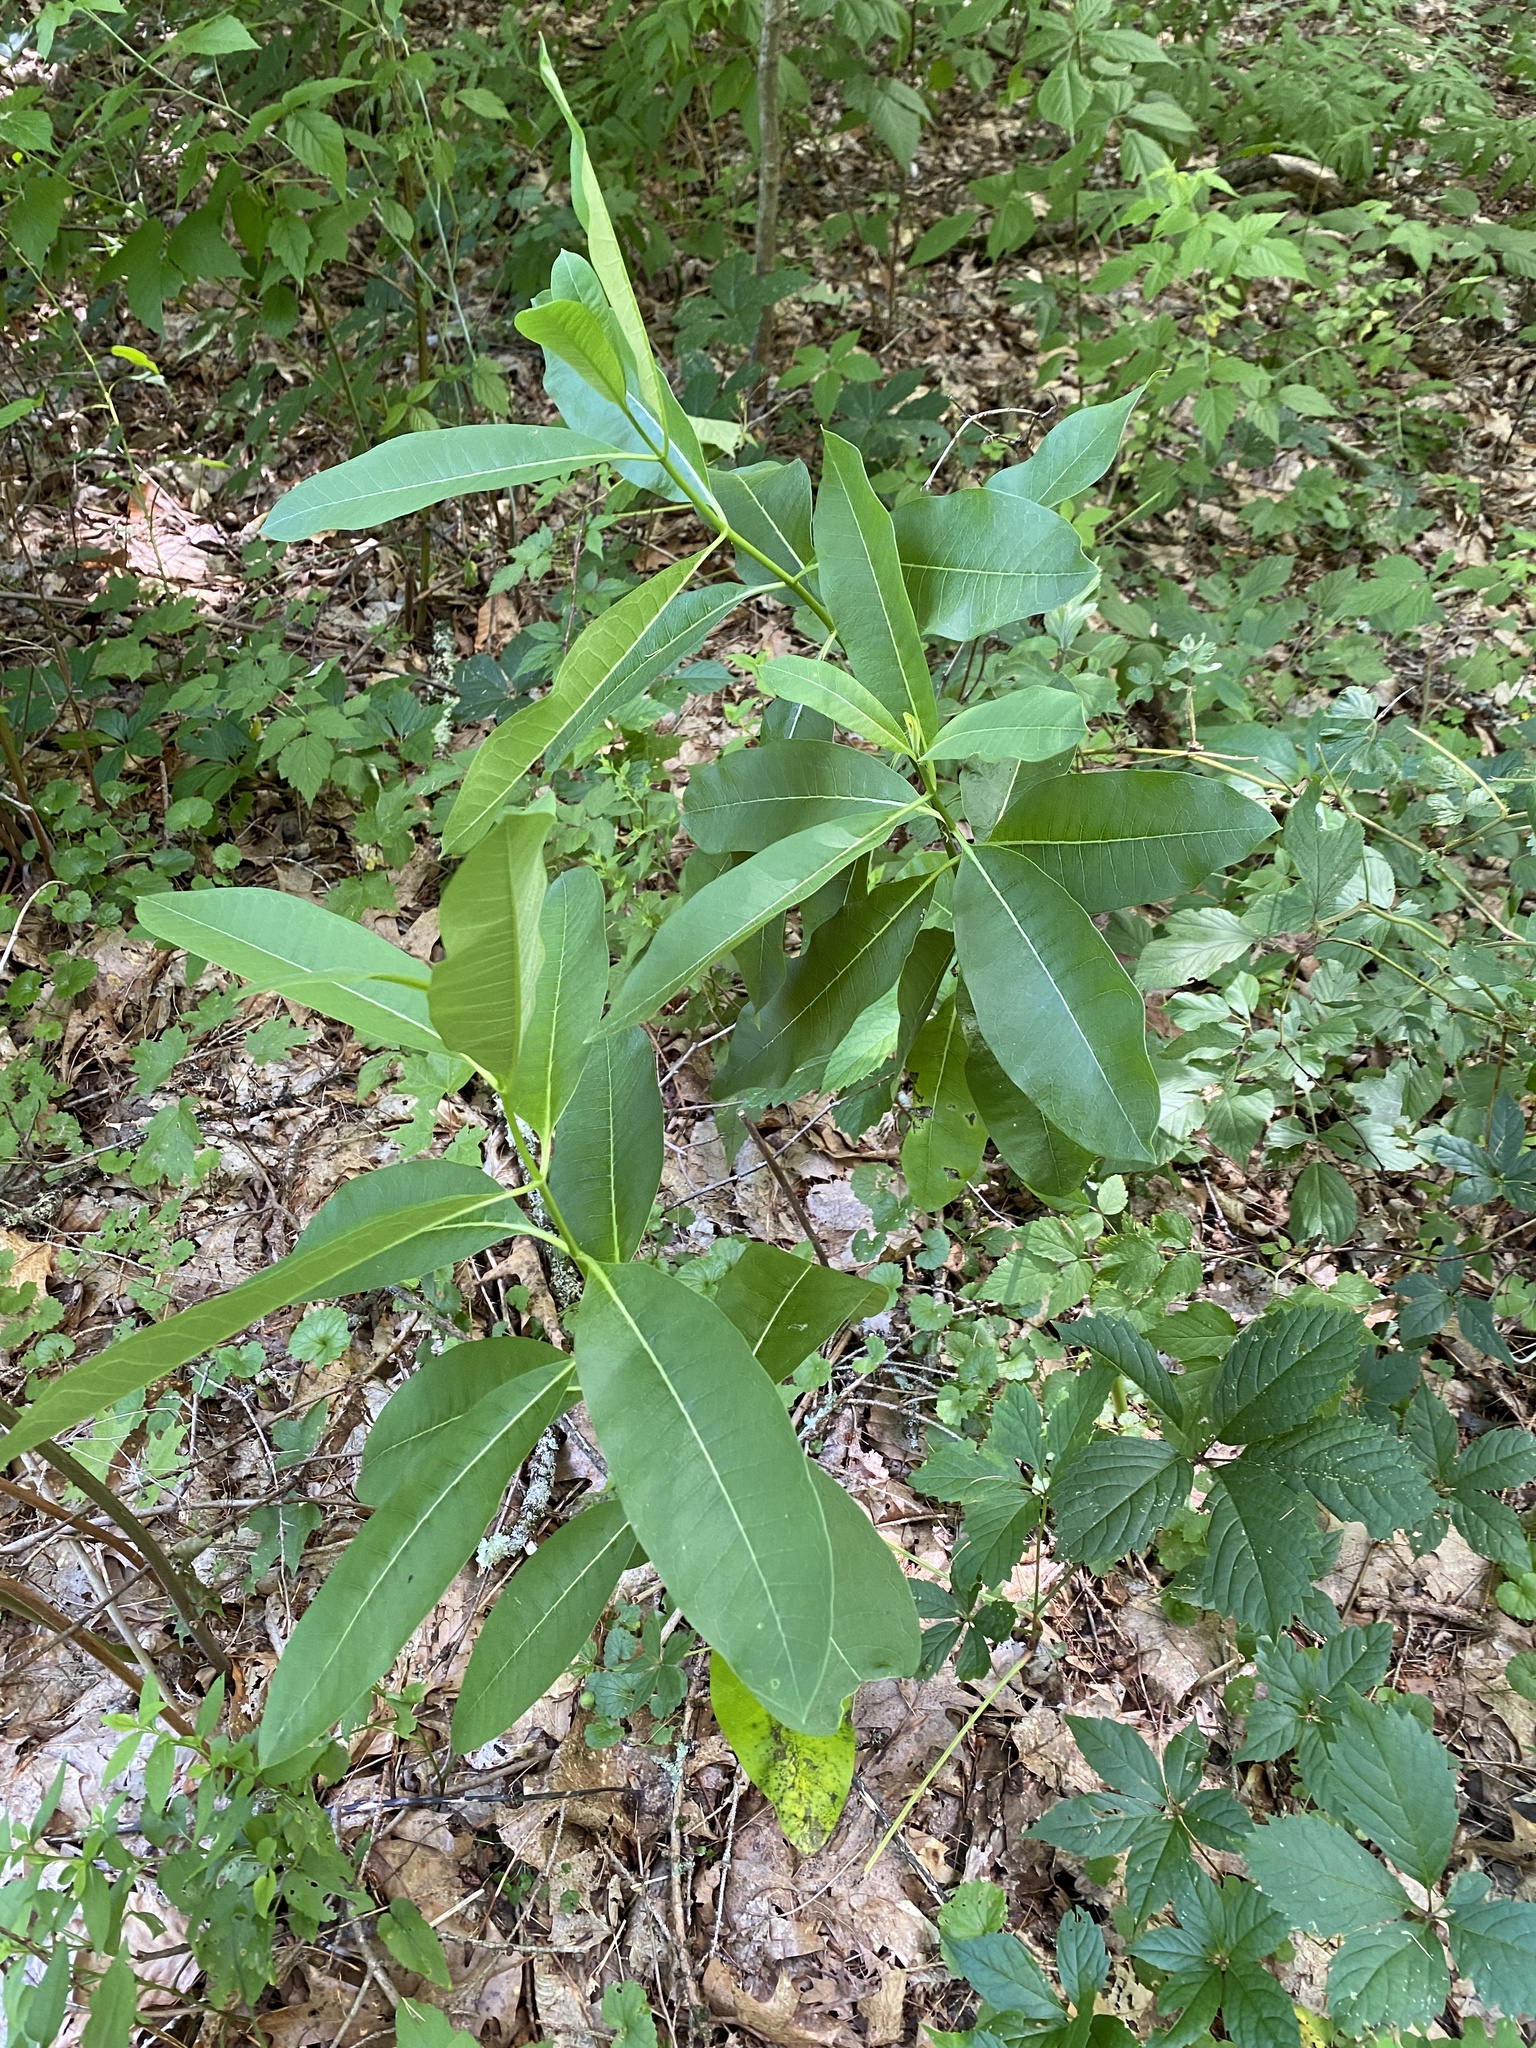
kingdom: Plantae
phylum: Tracheophyta
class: Magnoliopsida
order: Gentianales
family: Apocynaceae
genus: Asclepias
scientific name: Asclepias syriaca
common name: Common milkweed
